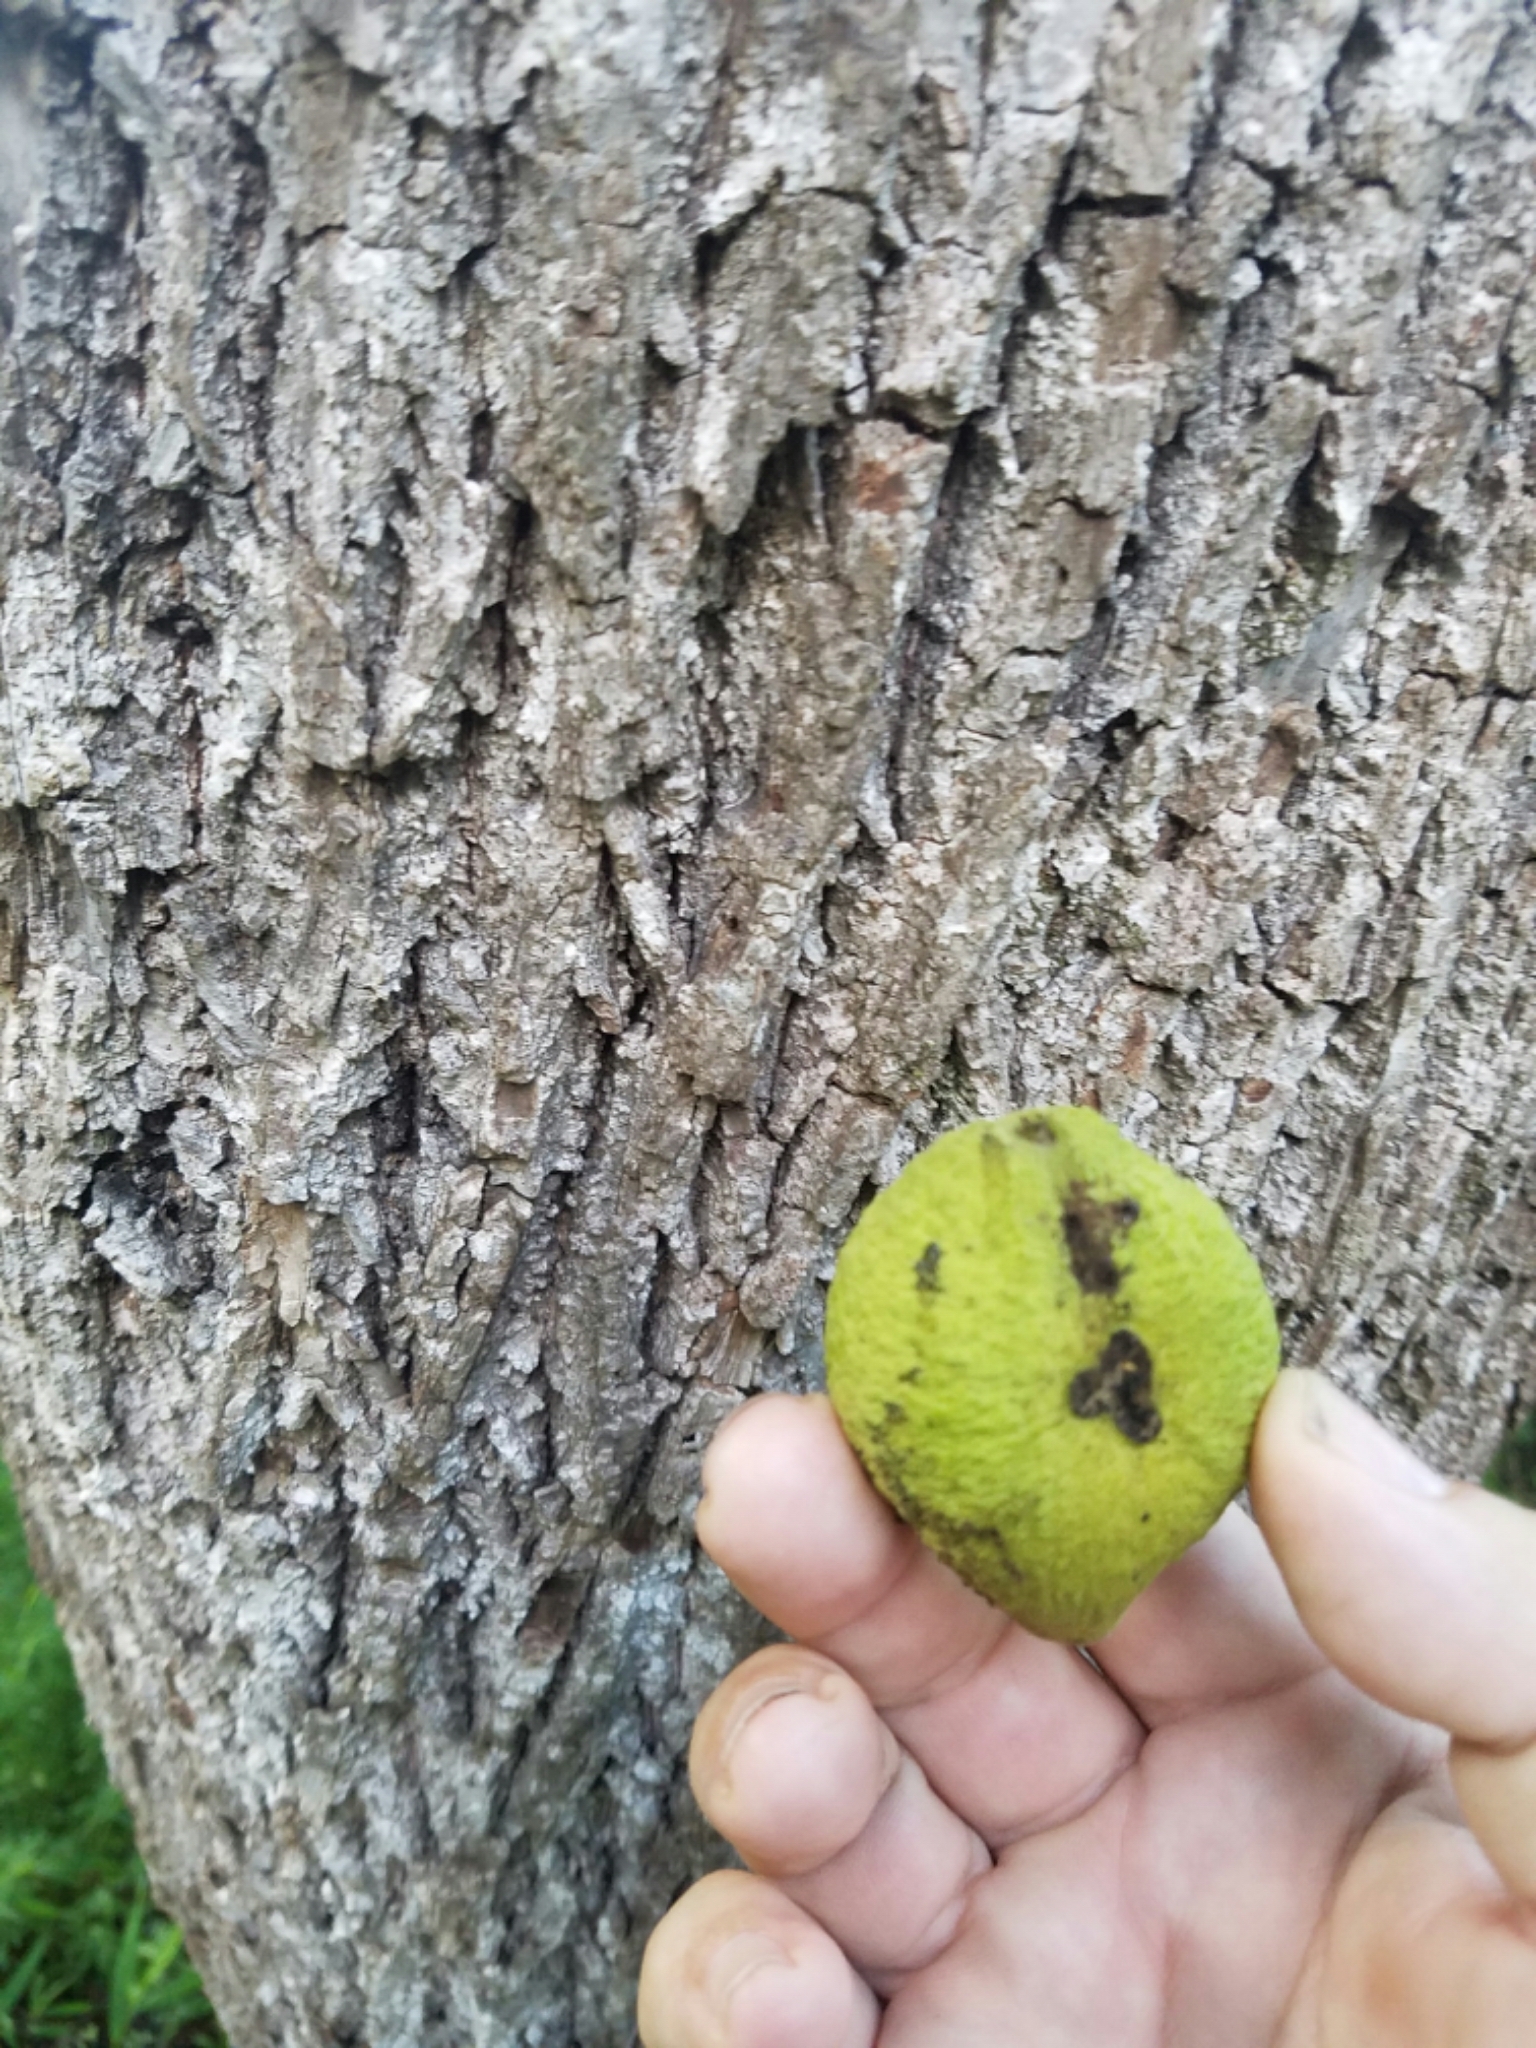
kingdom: Plantae
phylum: Tracheophyta
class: Magnoliopsida
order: Fagales
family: Juglandaceae
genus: Juglans
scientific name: Juglans nigra
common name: Black walnut
